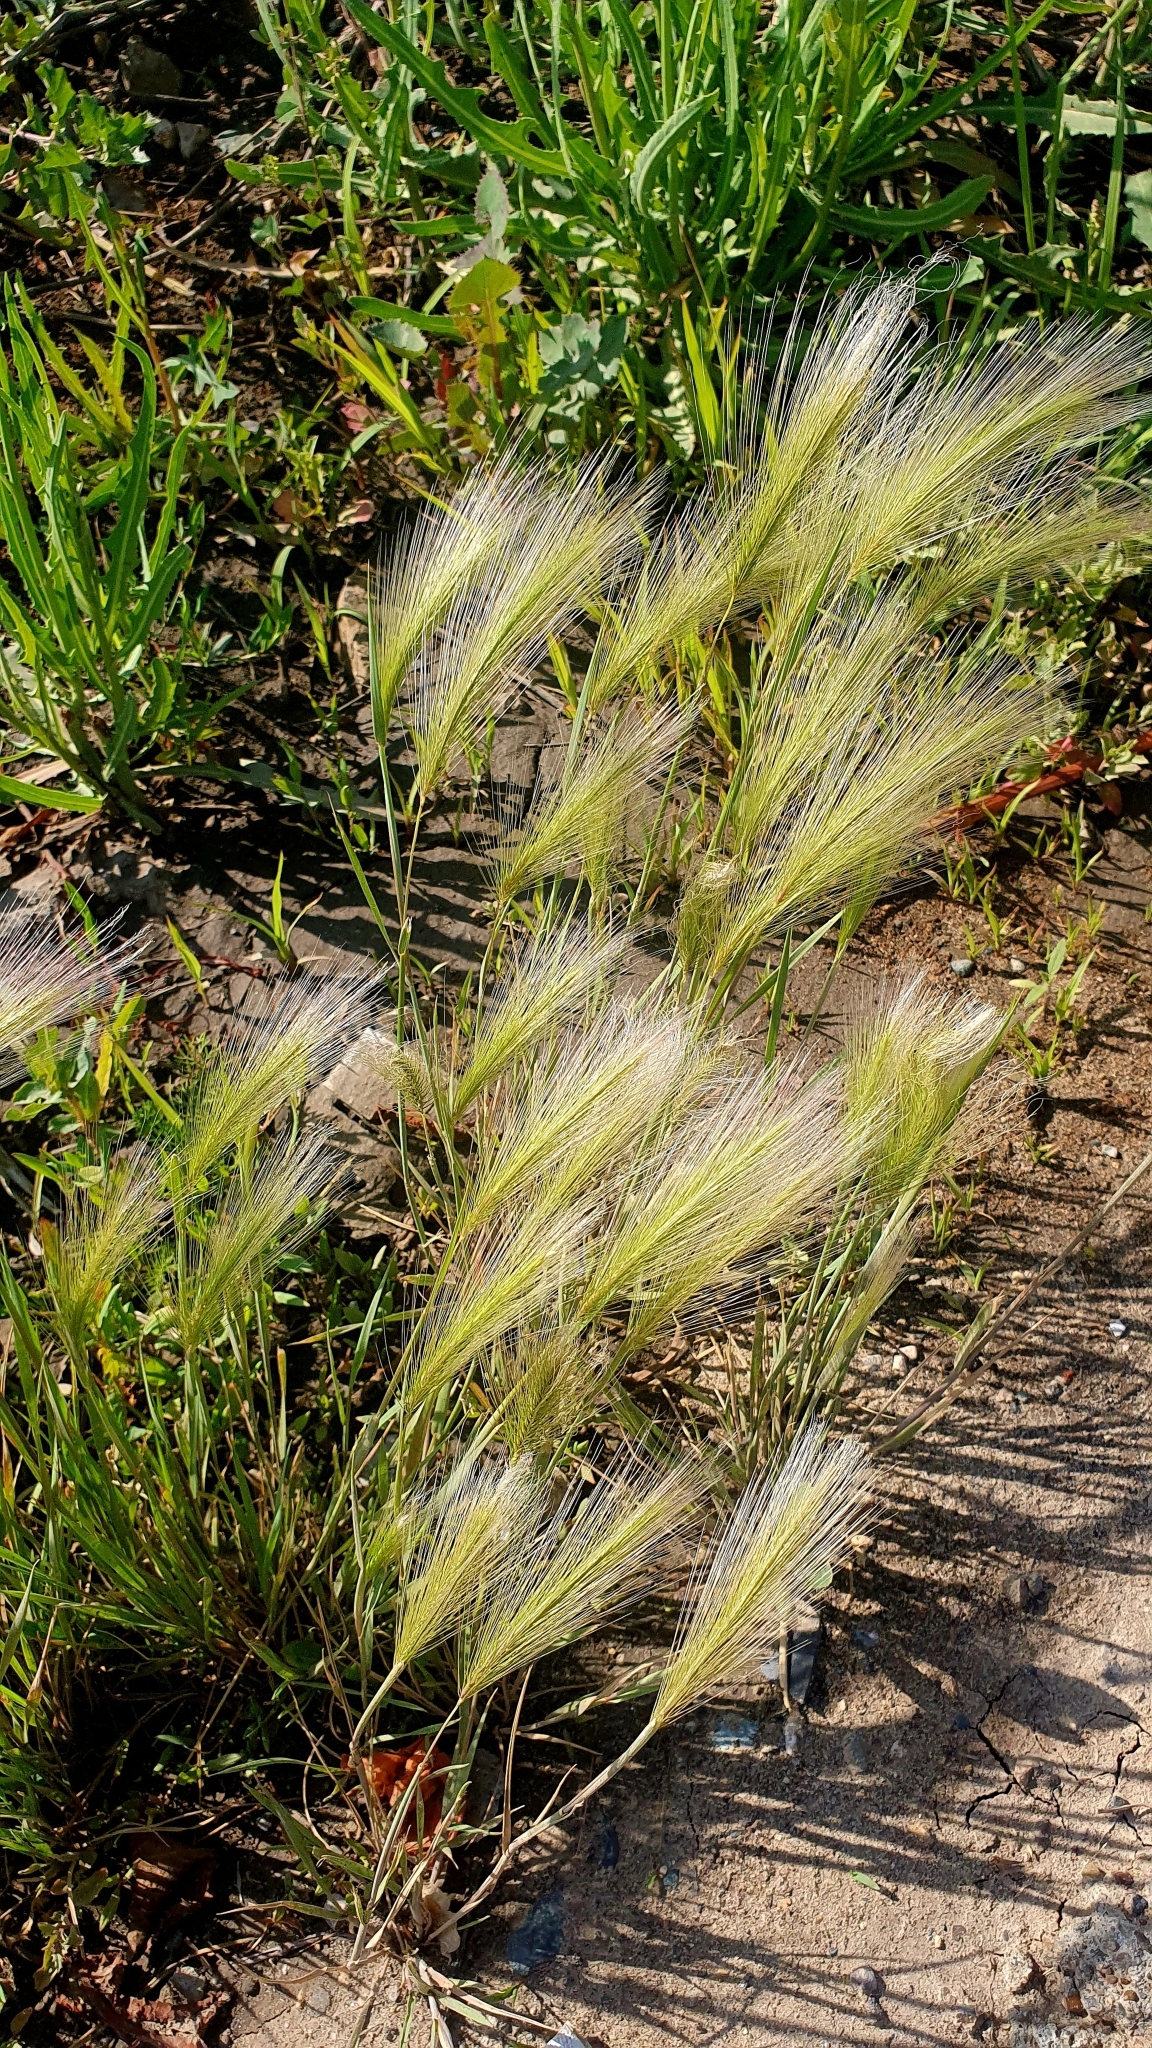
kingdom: Plantae
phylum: Tracheophyta
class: Liliopsida
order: Poales
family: Poaceae
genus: Hordeum
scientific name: Hordeum jubatum
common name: Foxtail barley
